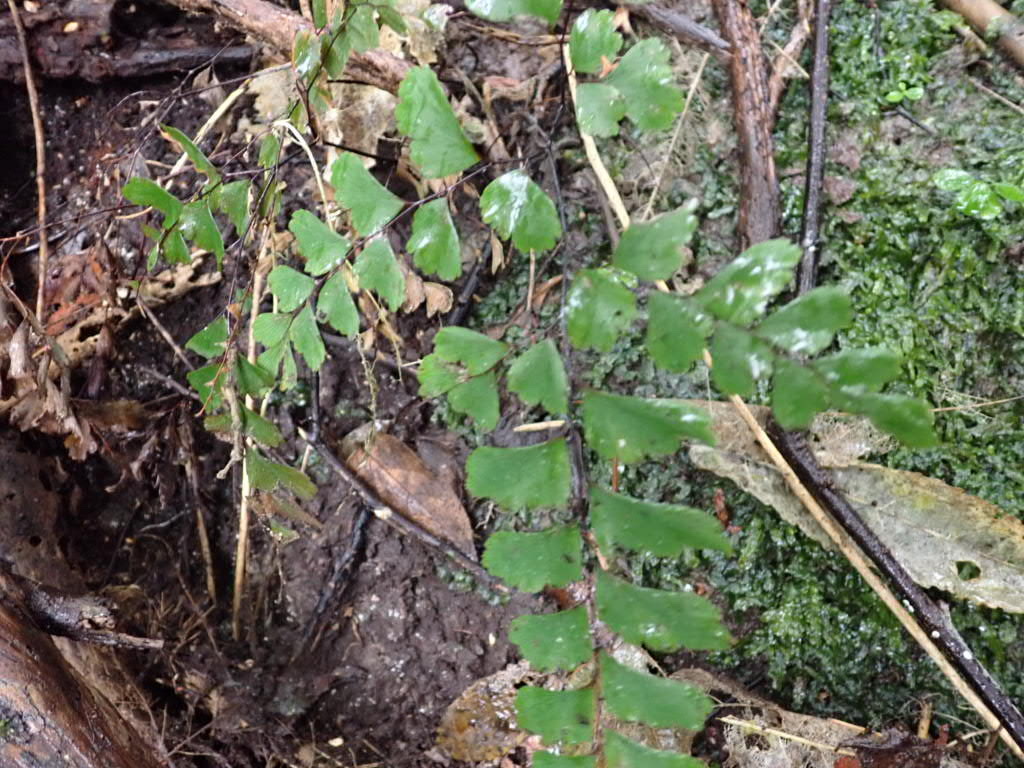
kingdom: Plantae
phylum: Tracheophyta
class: Polypodiopsida
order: Polypodiales
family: Pteridaceae
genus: Adiantum
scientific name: Adiantum cunninghamii
